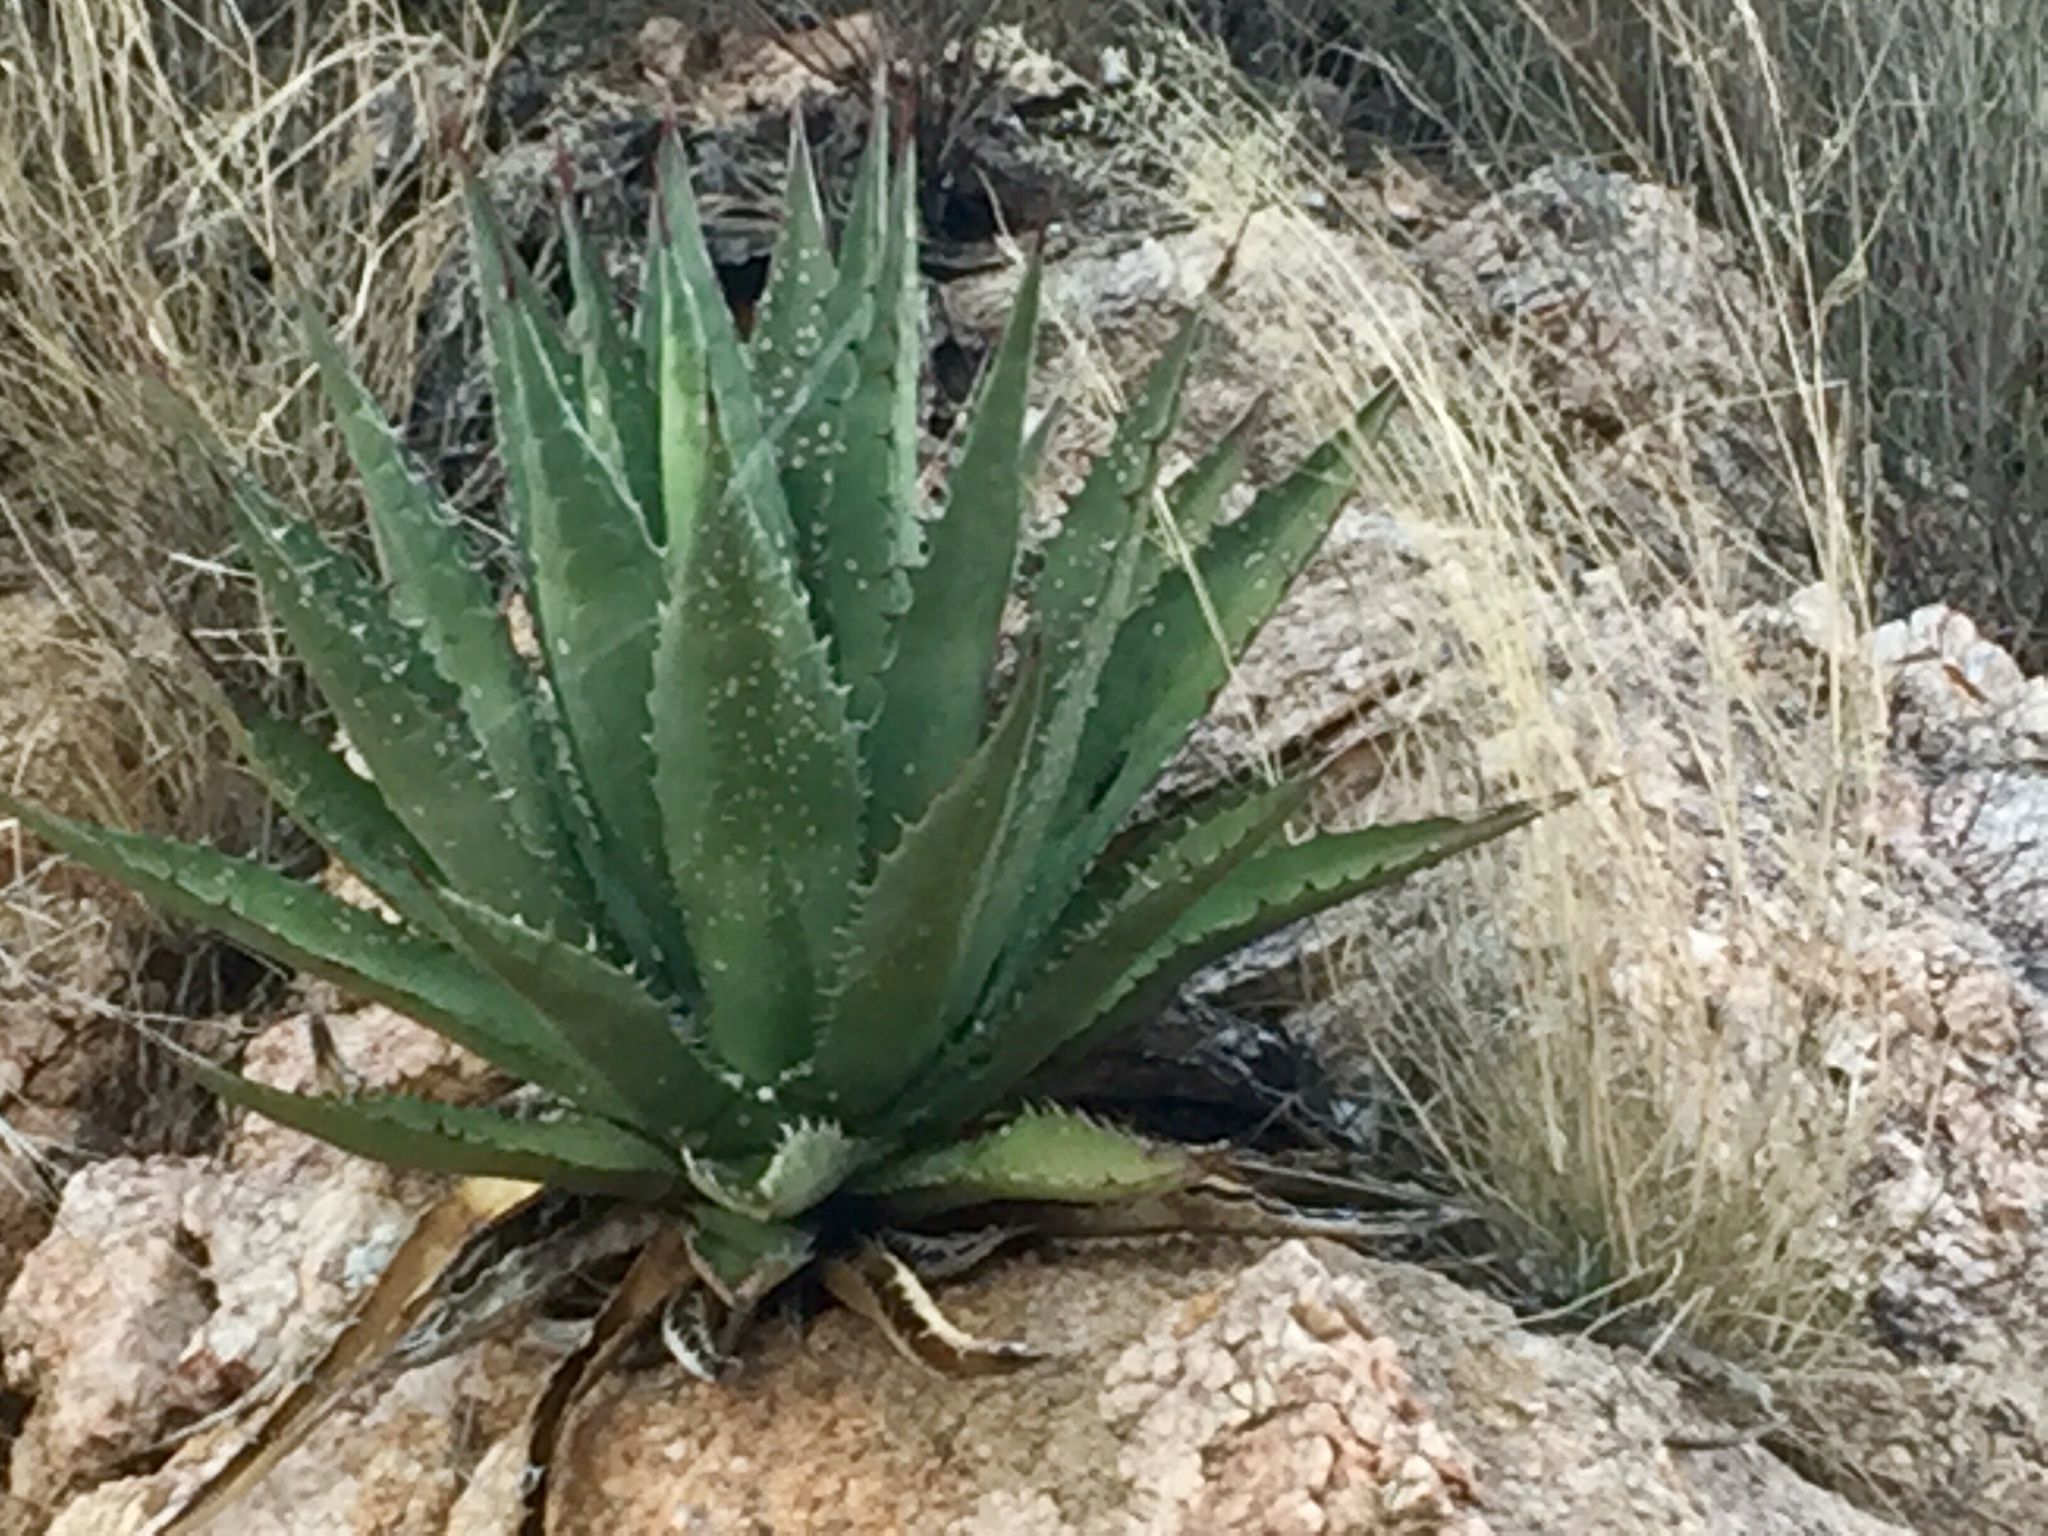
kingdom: Plantae
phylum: Tracheophyta
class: Liliopsida
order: Asparagales
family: Asparagaceae
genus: Agave
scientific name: Agave chrysantha
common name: Golden-flowered agave
